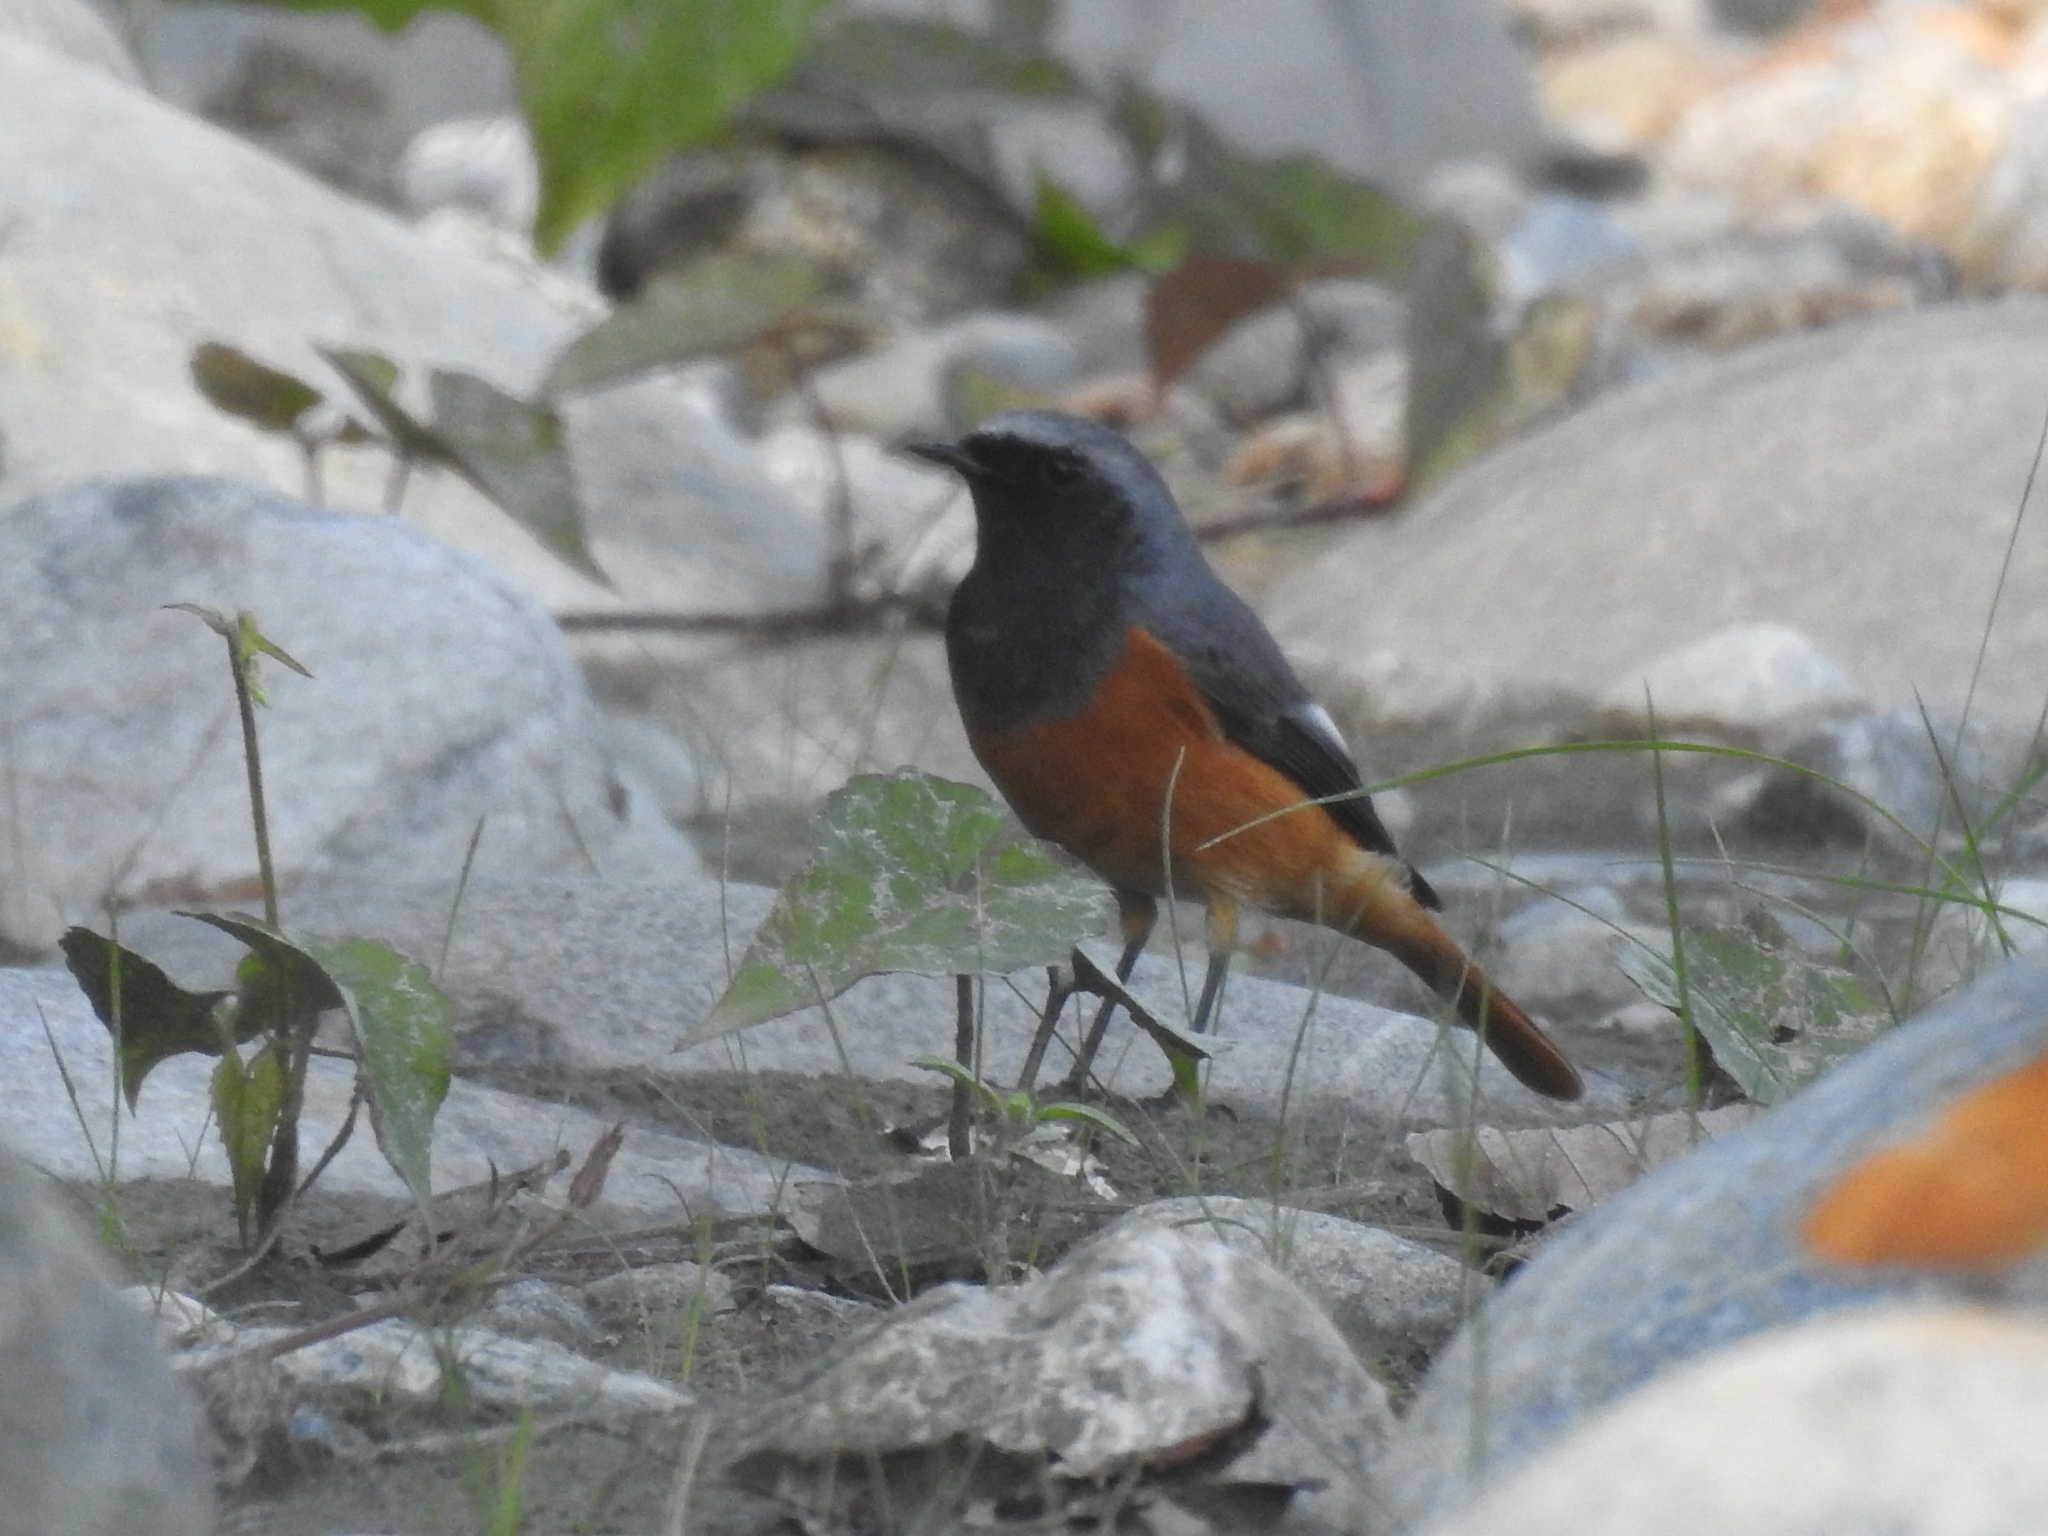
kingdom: Animalia
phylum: Chordata
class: Aves
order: Passeriformes
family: Muscicapidae
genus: Phoenicurus
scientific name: Phoenicurus auroreus
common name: Daurian redstart
